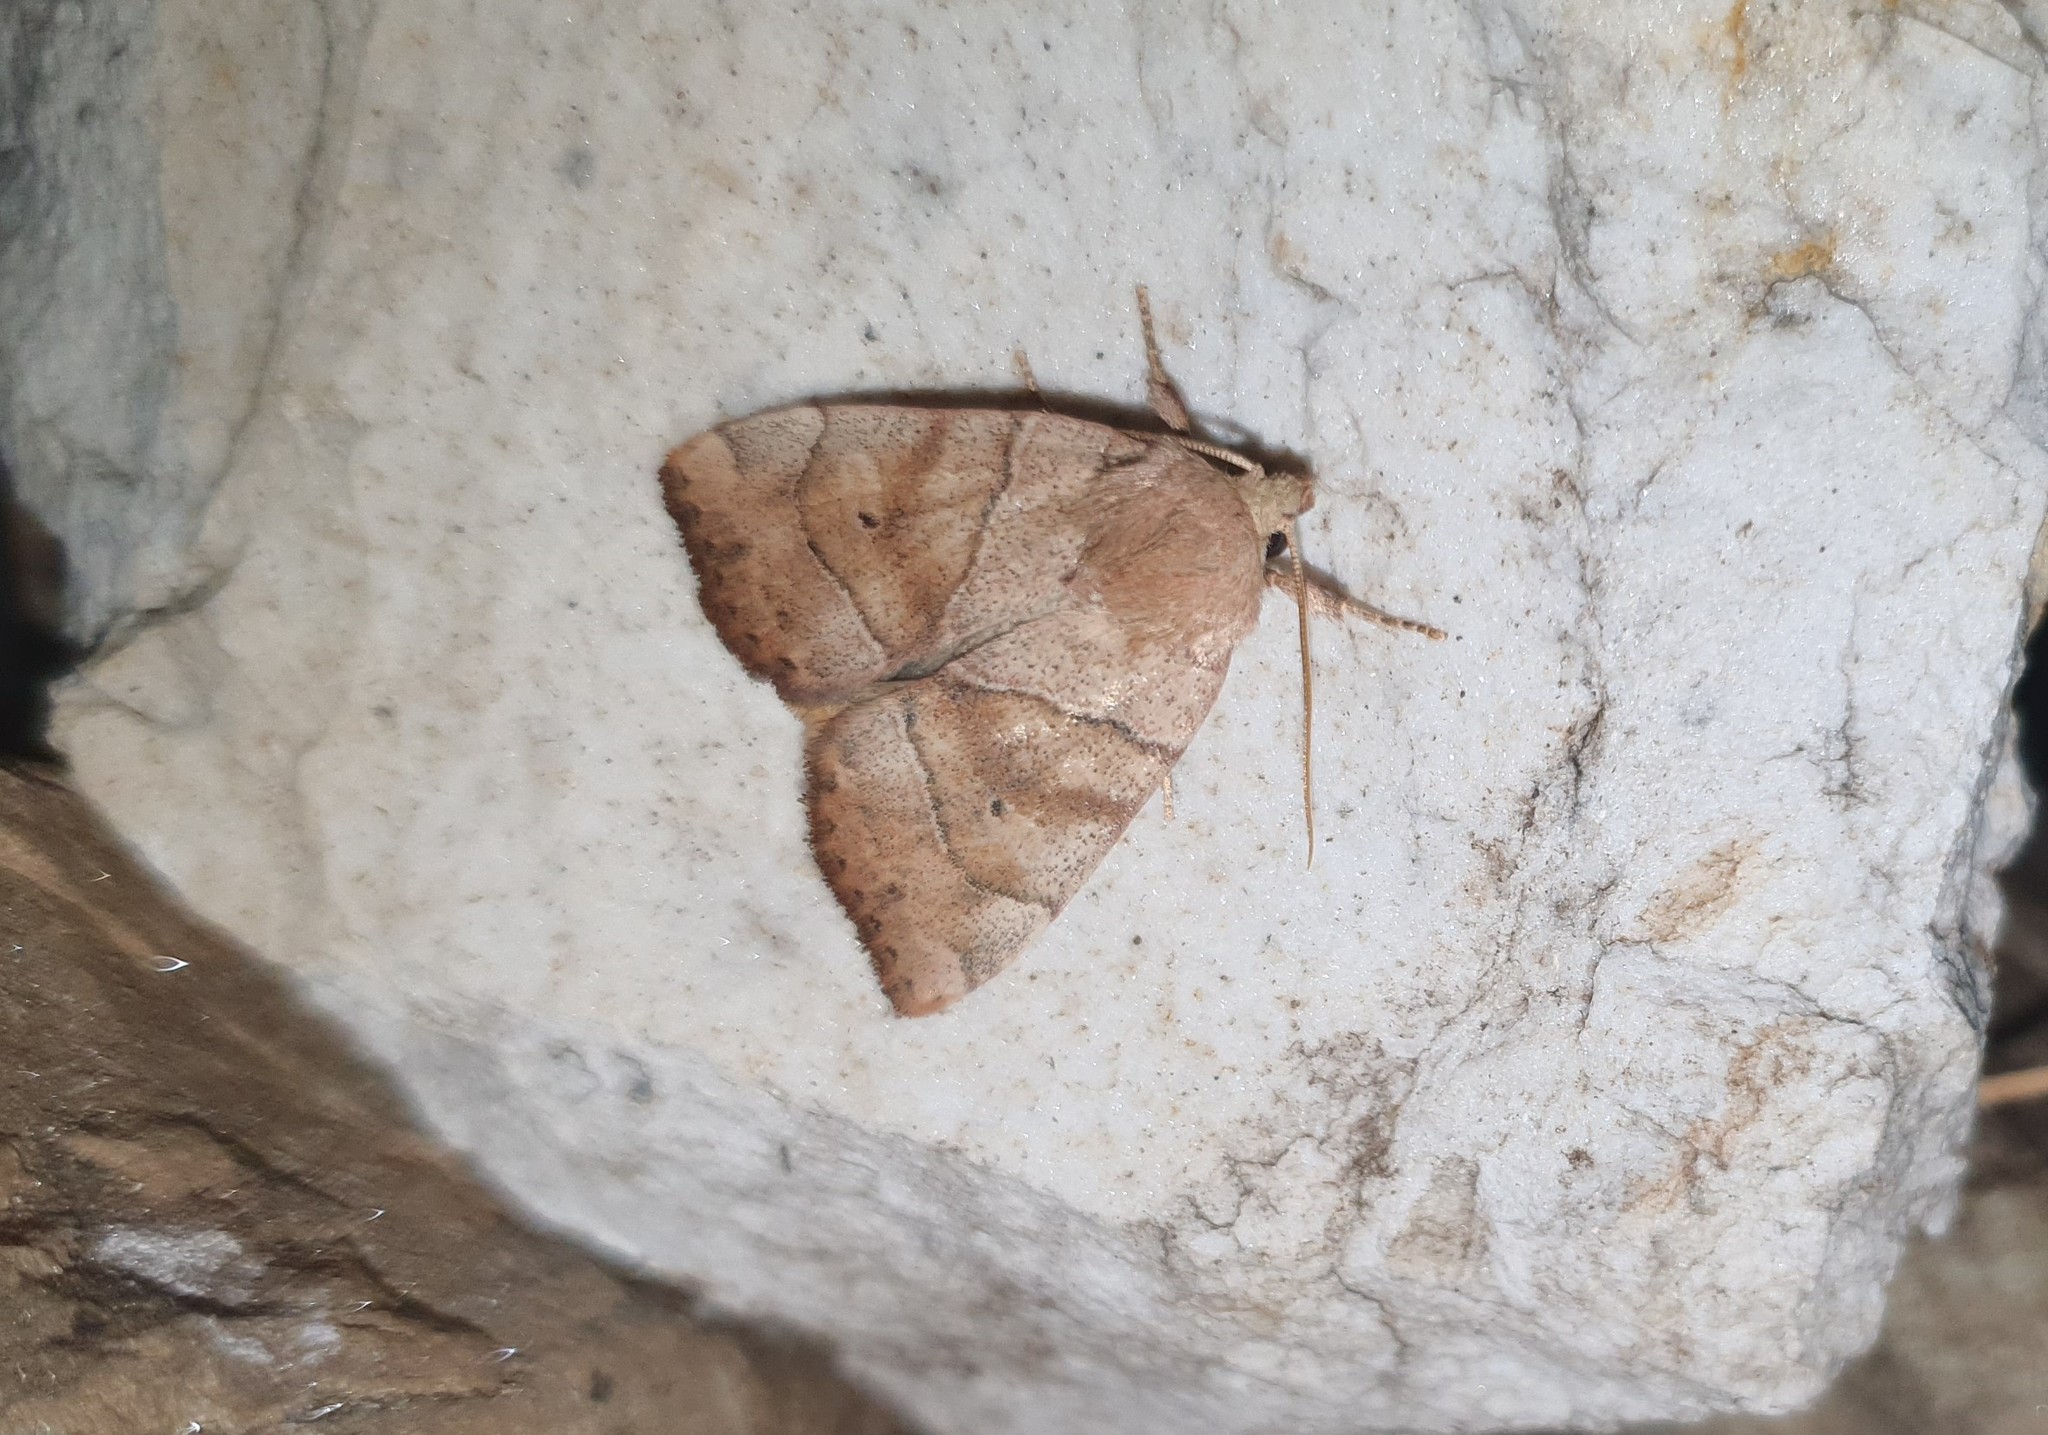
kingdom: Animalia
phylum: Arthropoda
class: Insecta
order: Lepidoptera
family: Noctuidae
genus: Cosmia
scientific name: Cosmia trapezina
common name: Dun-bar
